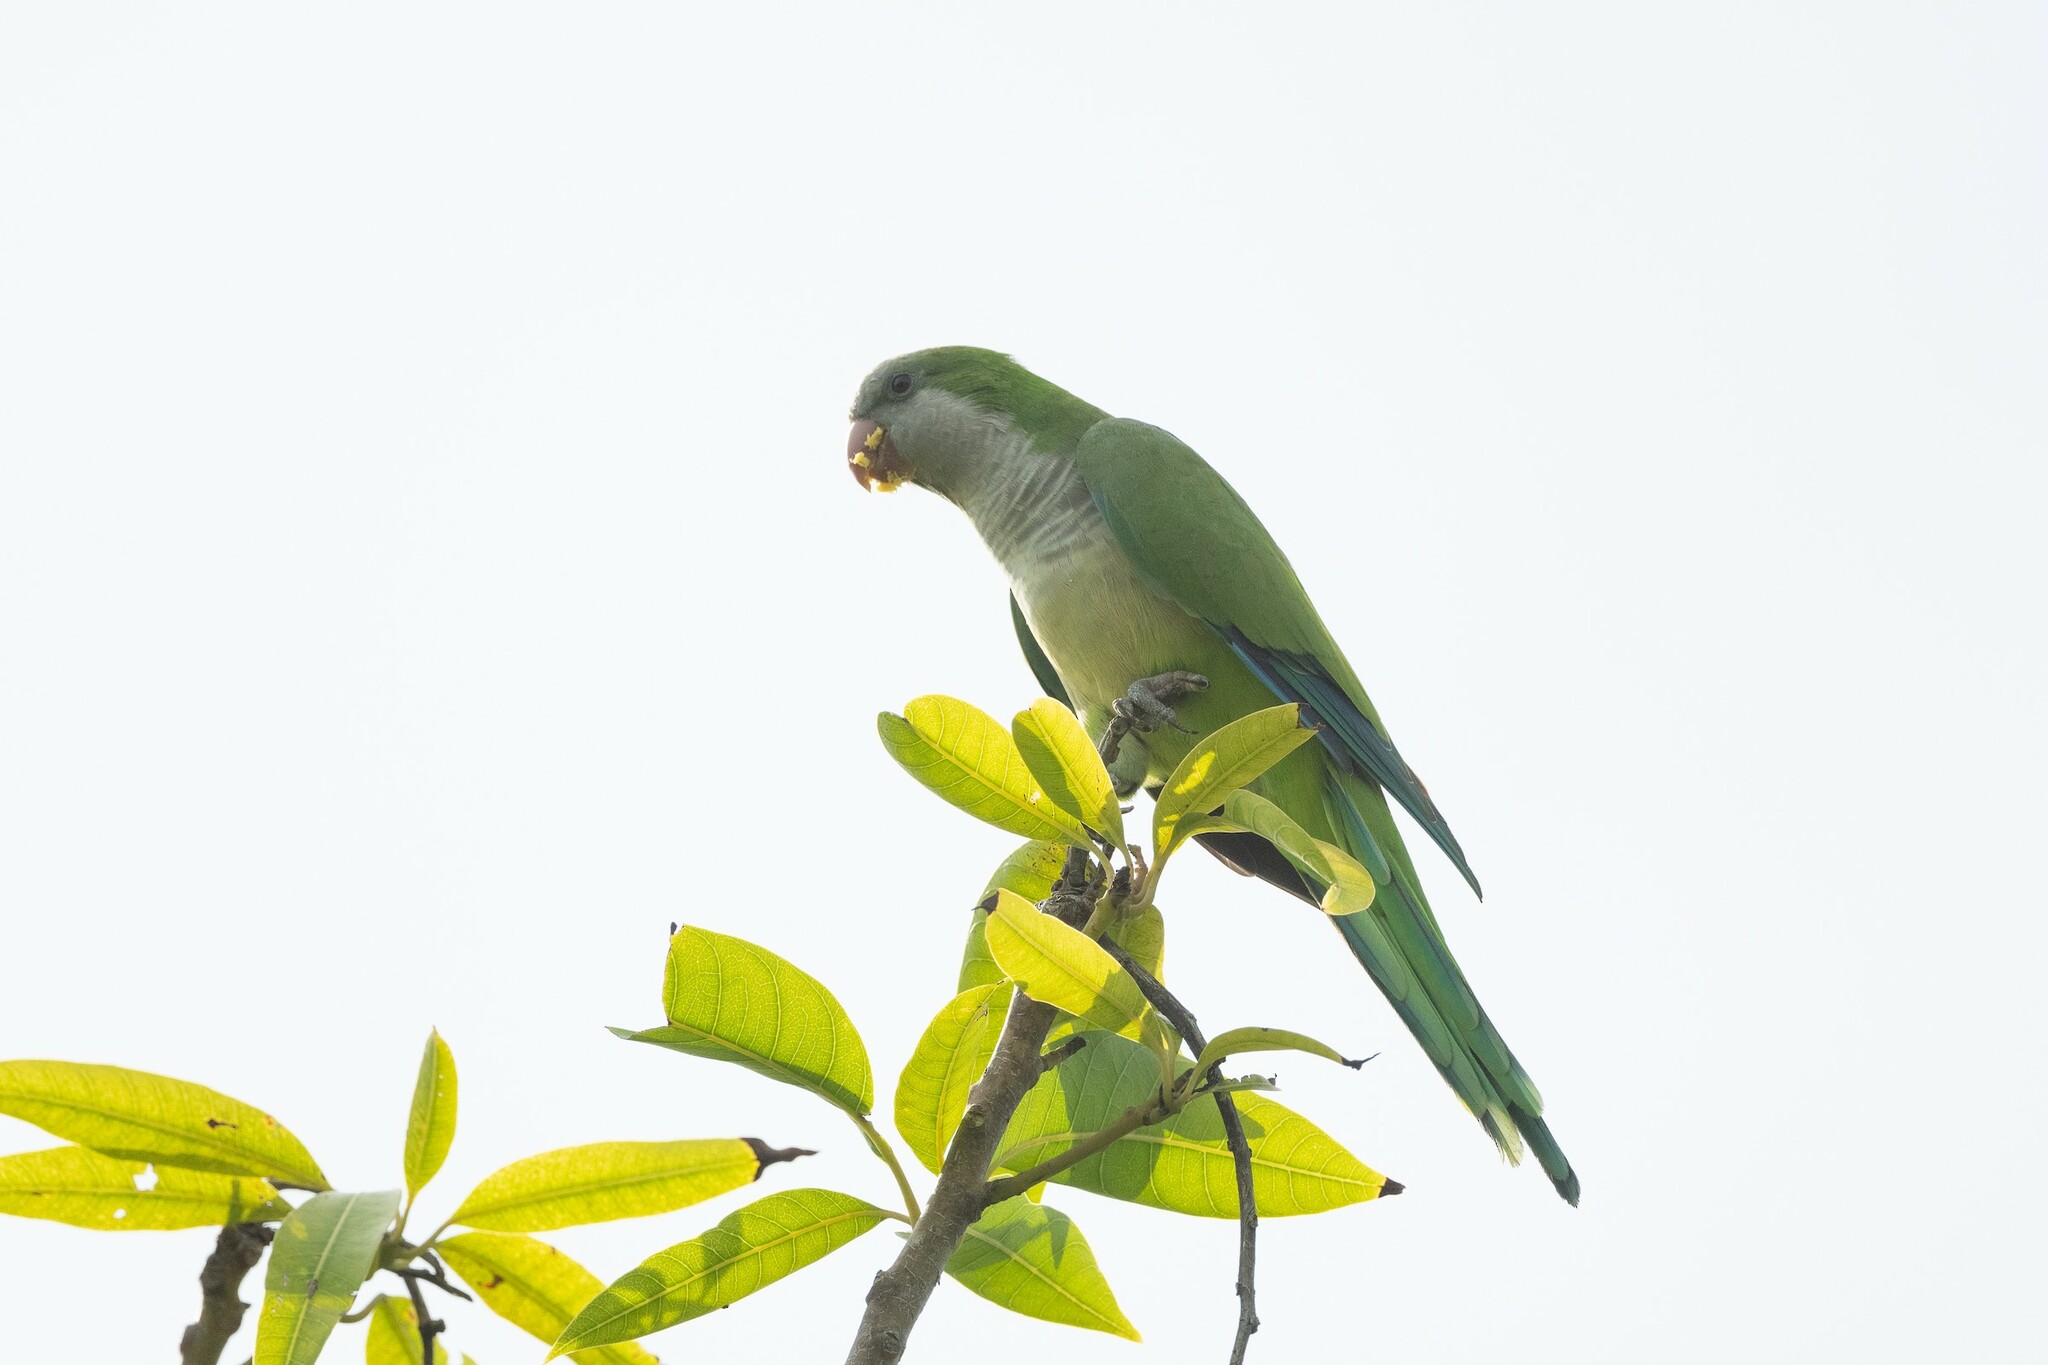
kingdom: Animalia
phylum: Chordata
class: Aves
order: Psittaciformes
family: Psittacidae
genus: Myiopsitta
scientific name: Myiopsitta monachus
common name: Monk parakeet
